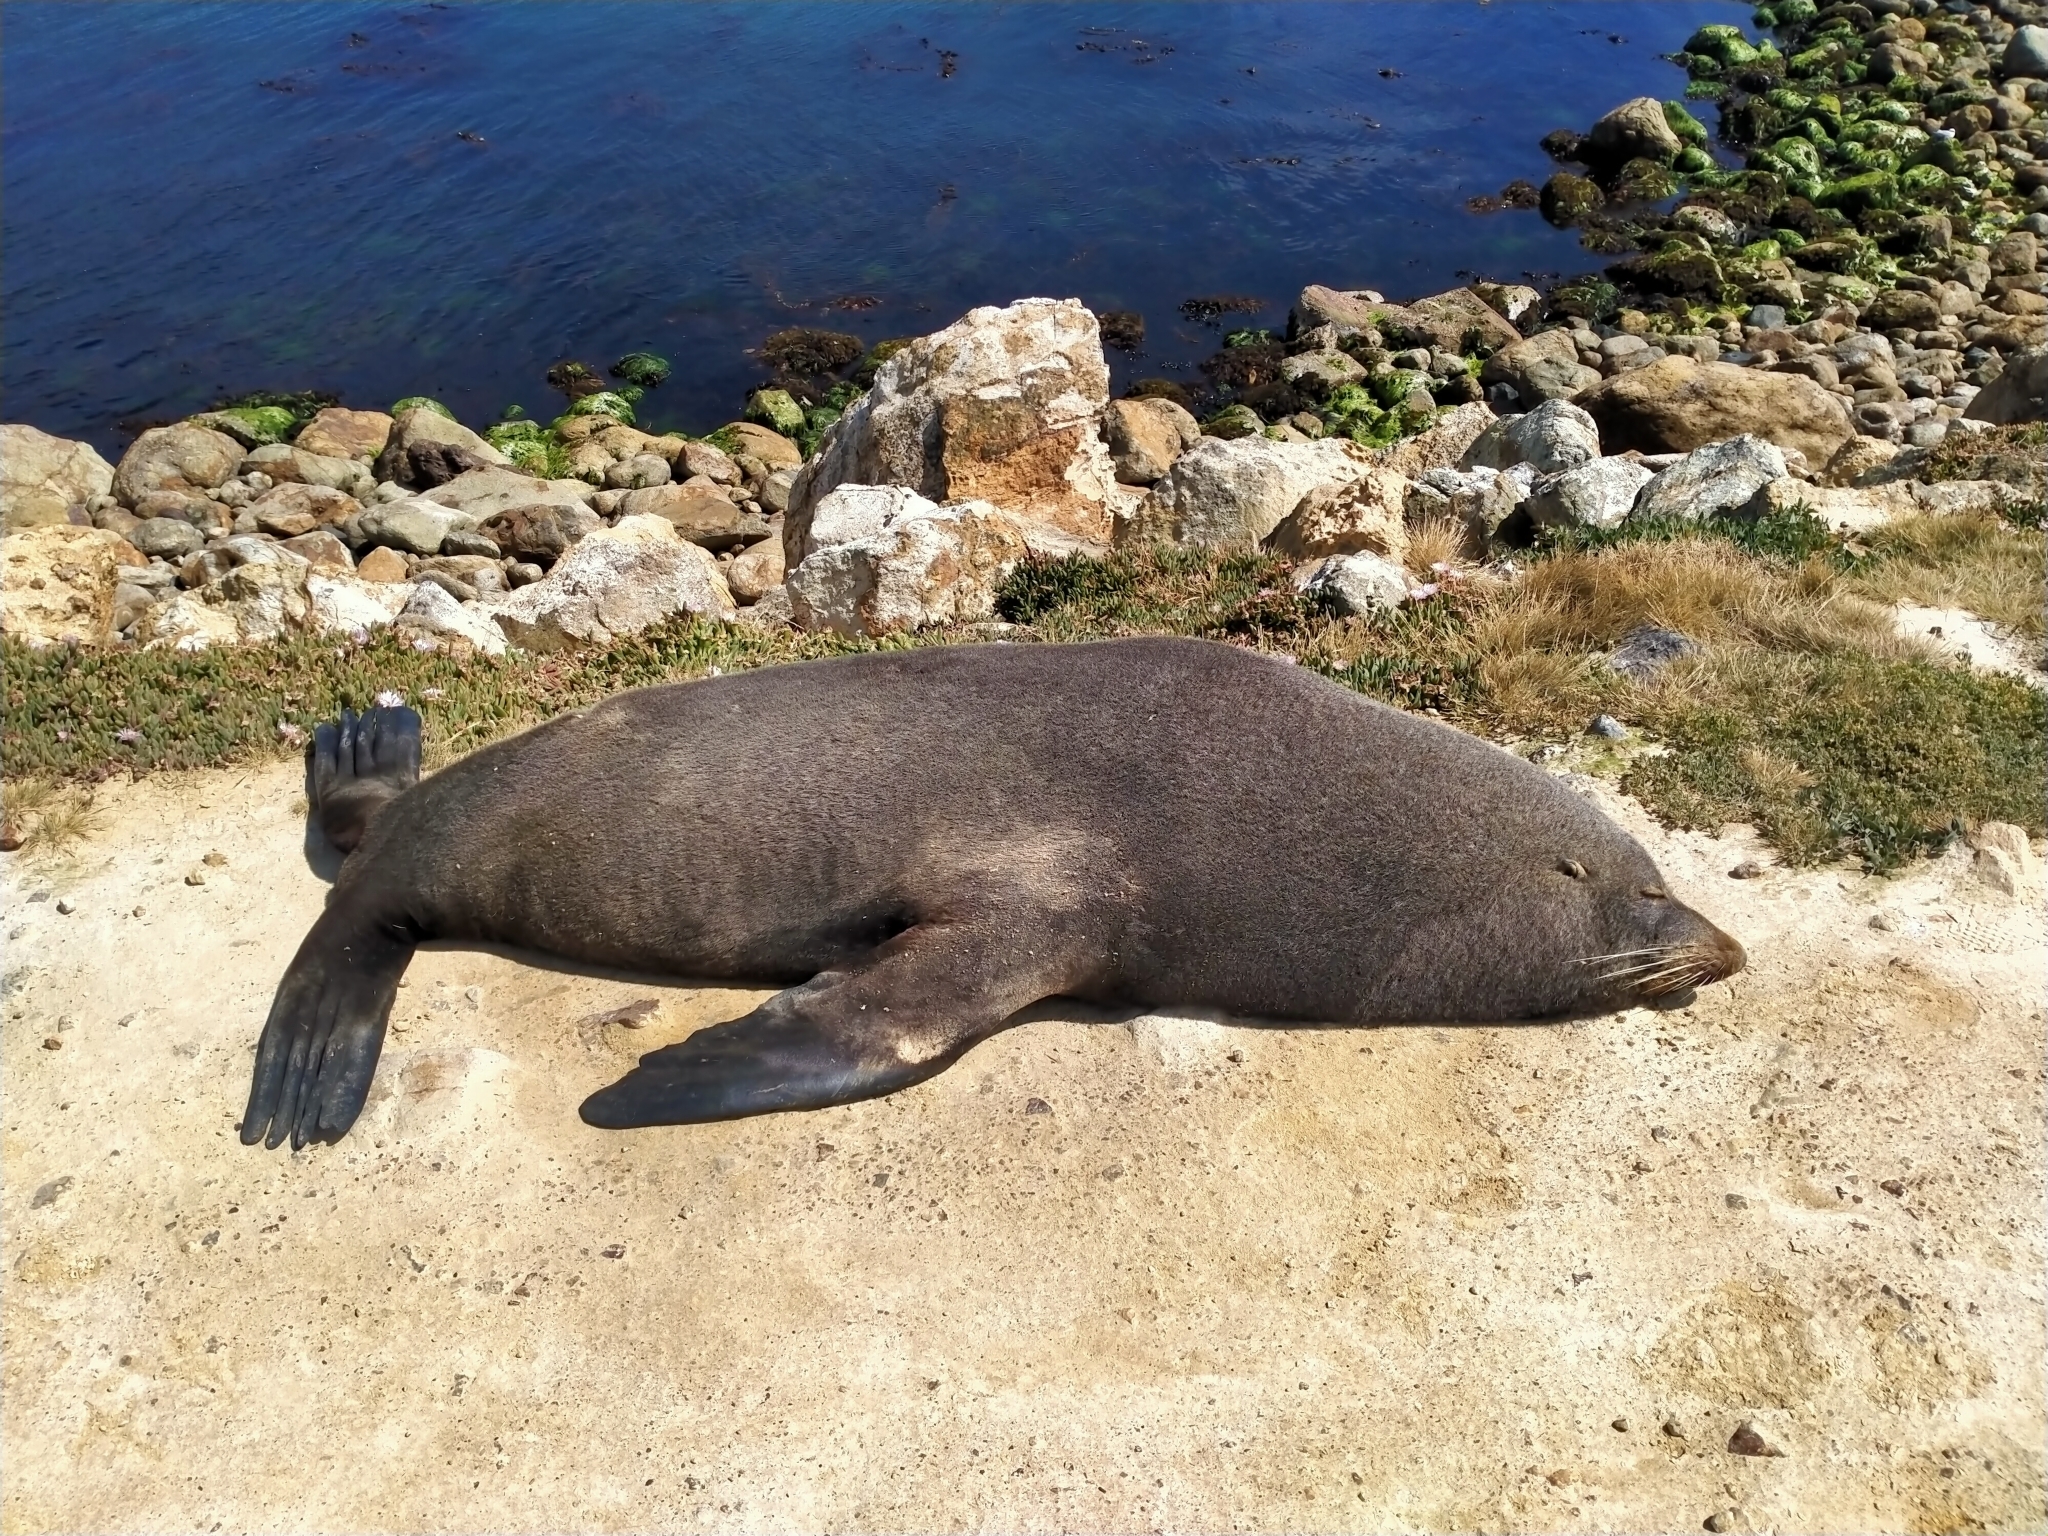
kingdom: Animalia
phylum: Chordata
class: Mammalia
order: Carnivora
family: Otariidae
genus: Arctocephalus
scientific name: Arctocephalus forsteri
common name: New zealand fur seal
